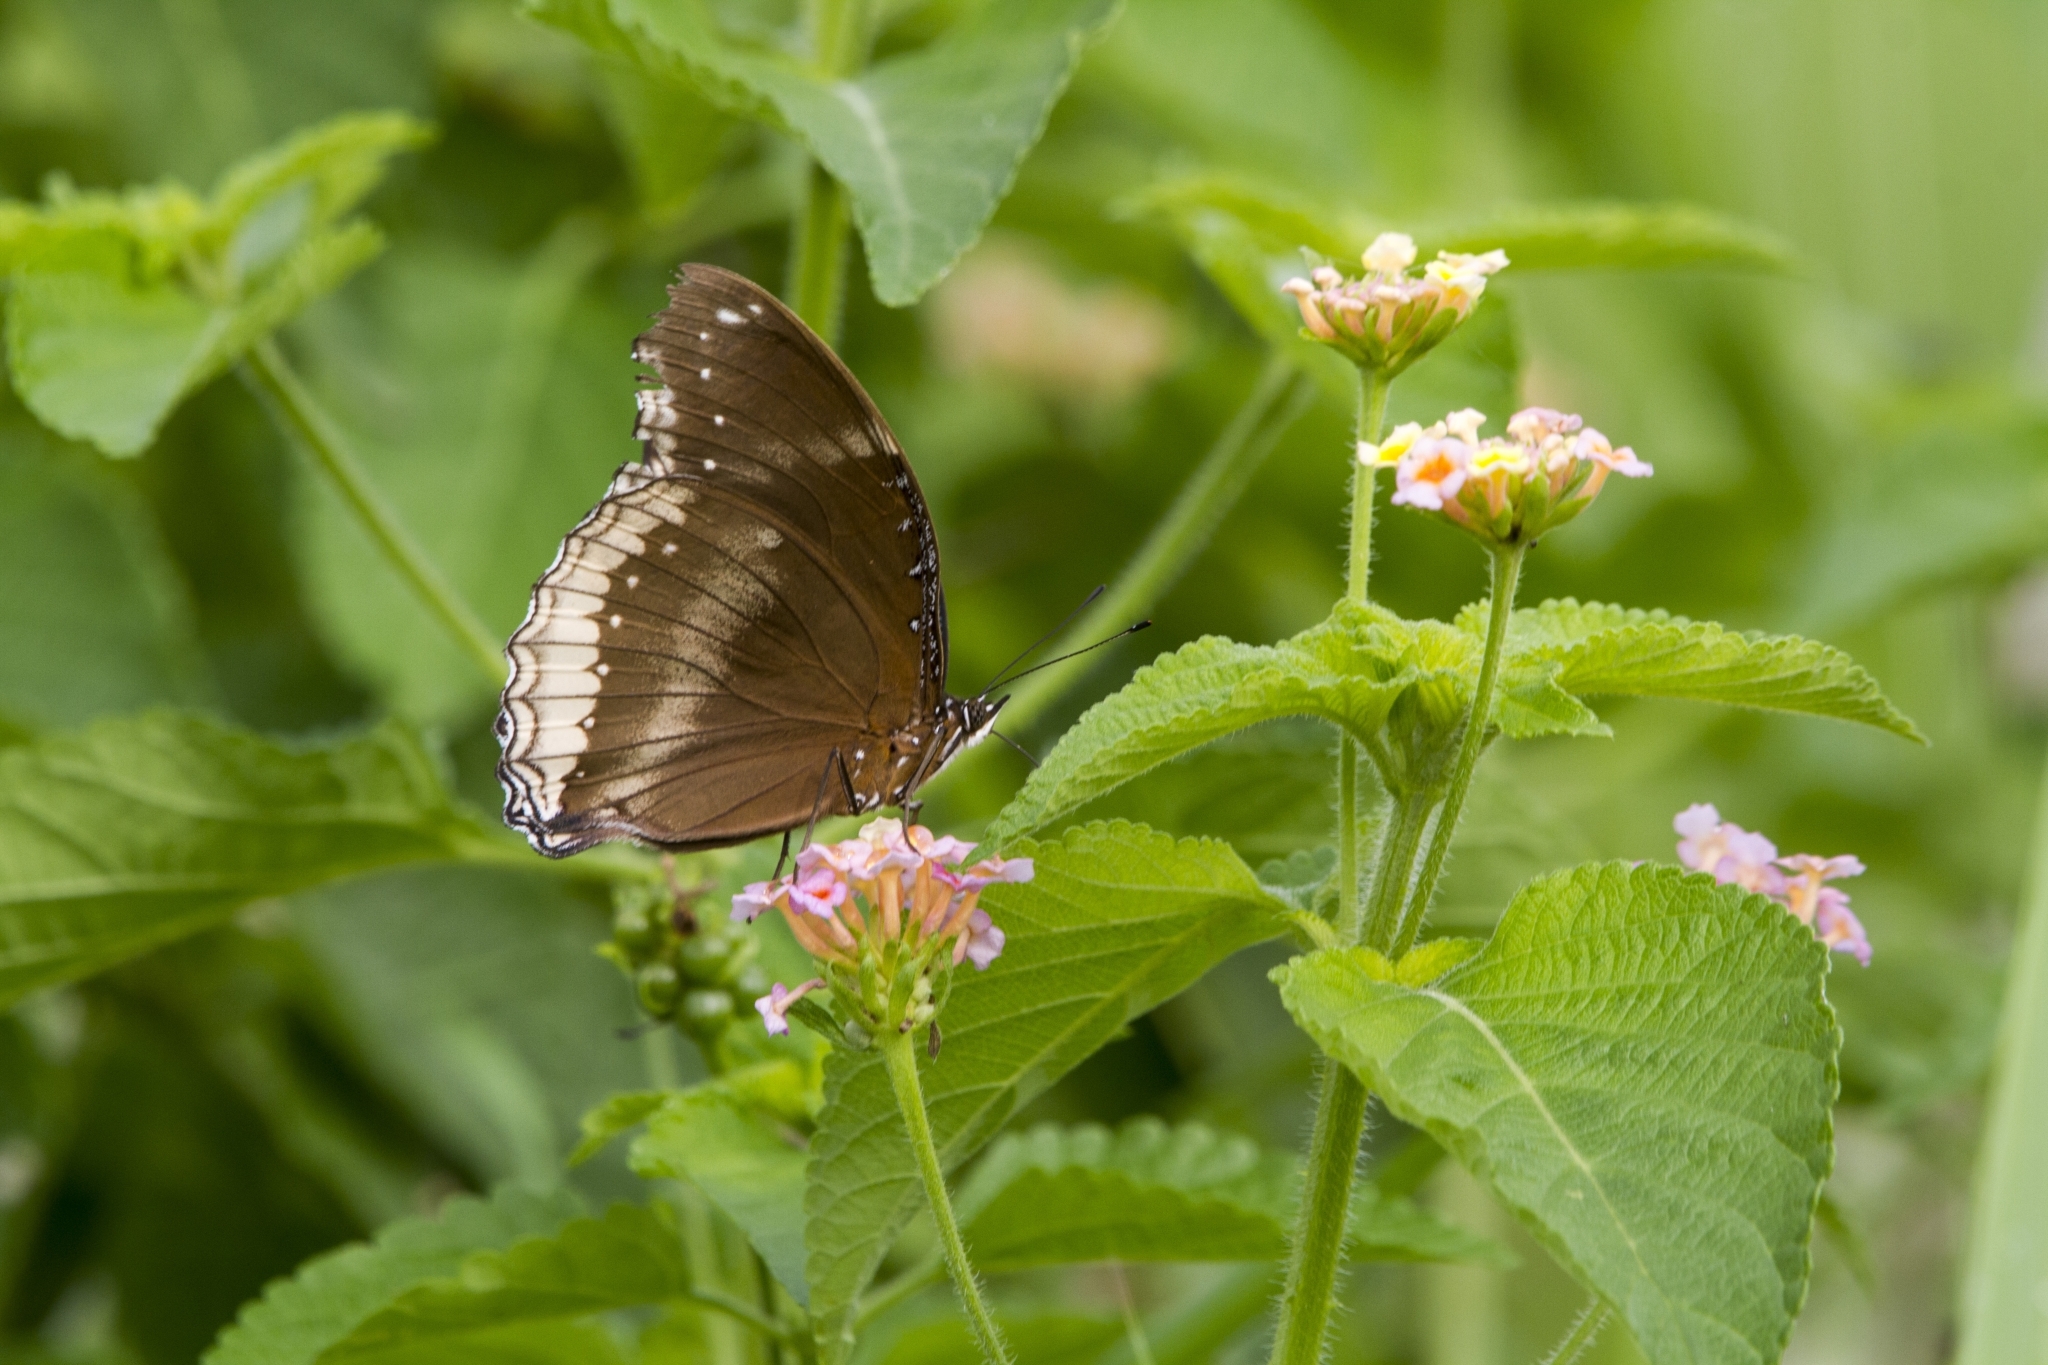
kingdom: Animalia
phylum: Arthropoda
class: Insecta
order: Lepidoptera
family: Nymphalidae
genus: Hypolimnas
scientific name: Hypolimnas bolina
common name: Great eggfly
